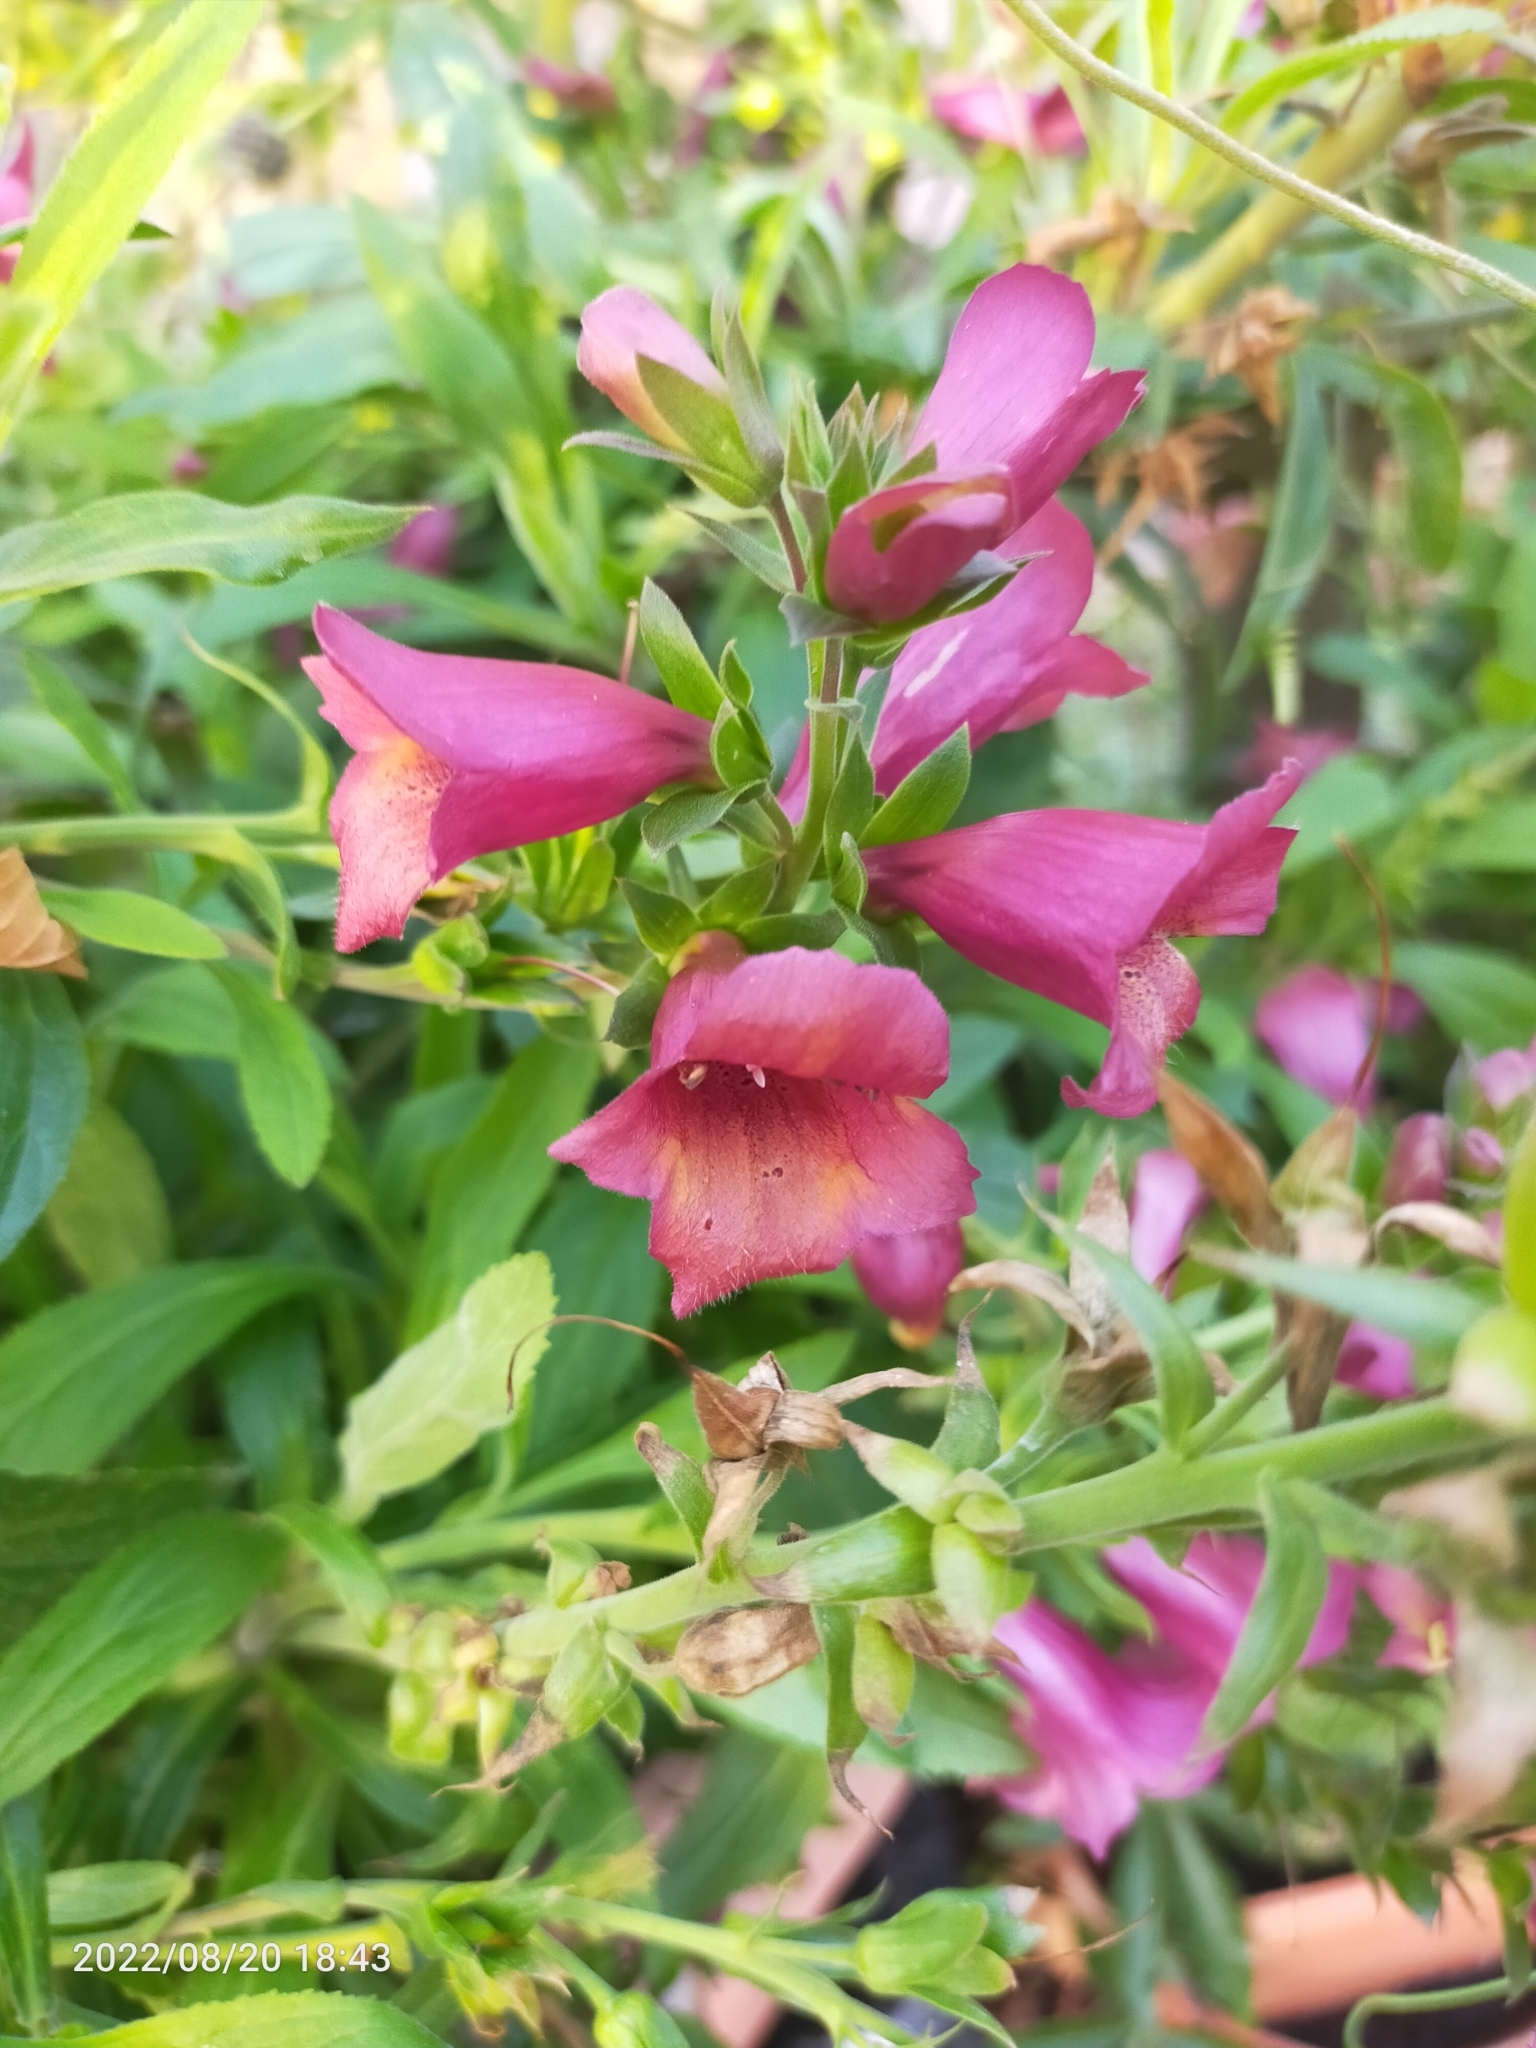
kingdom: Plantae
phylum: Tracheophyta
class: Magnoliopsida
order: Lamiales
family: Plantaginaceae
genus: Digitalis
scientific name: Digitalis
